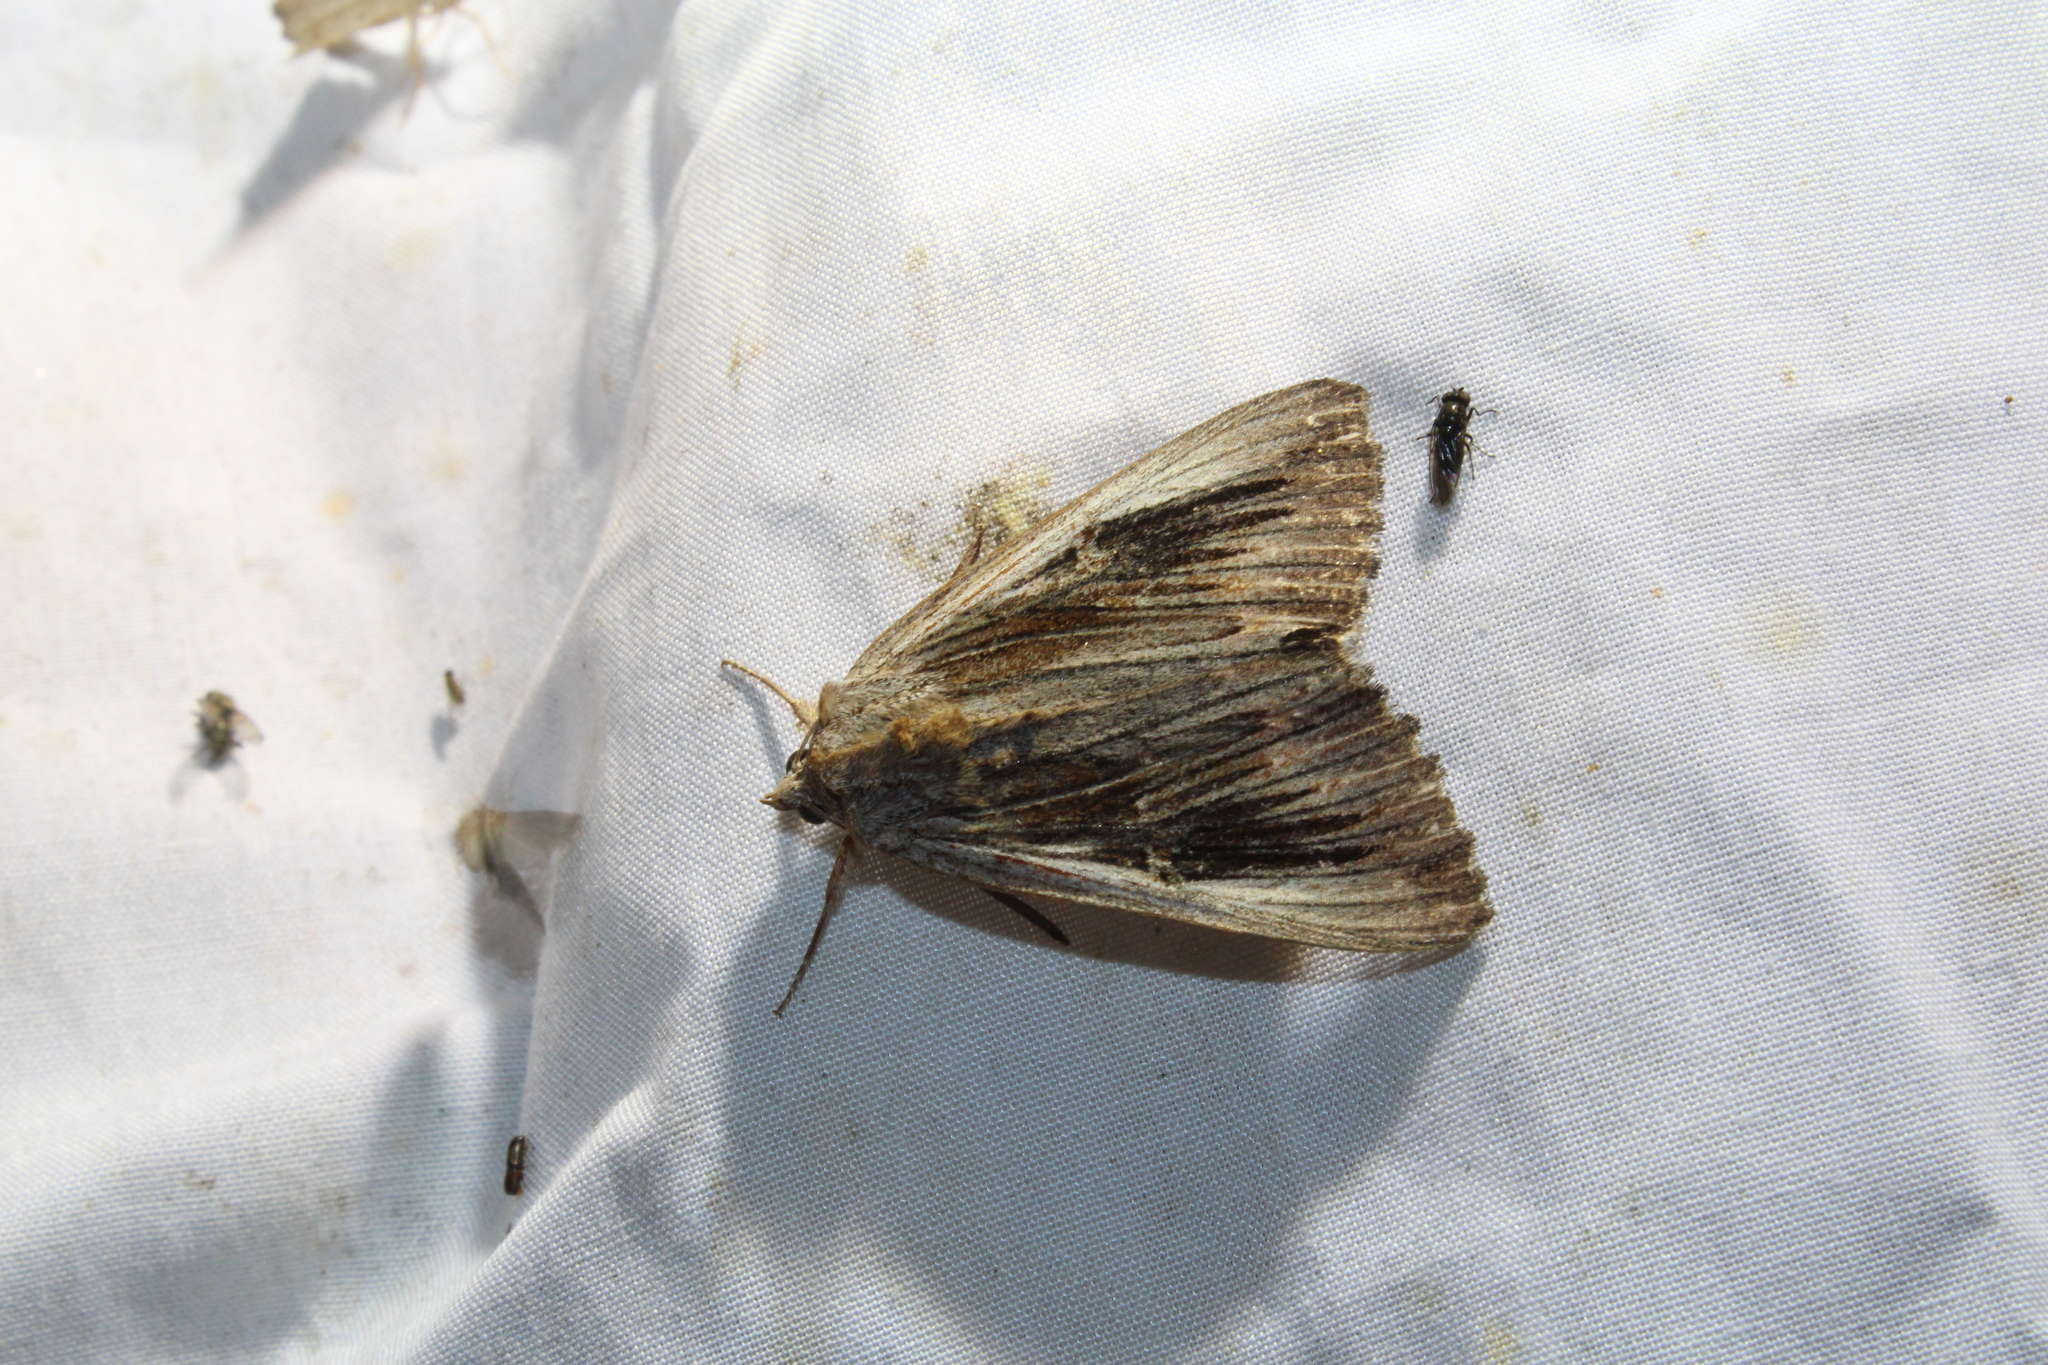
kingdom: Animalia
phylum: Arthropoda
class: Insecta
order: Lepidoptera
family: Erebidae
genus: Catocala
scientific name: Catocala herodias
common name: Pine barrens underwing
